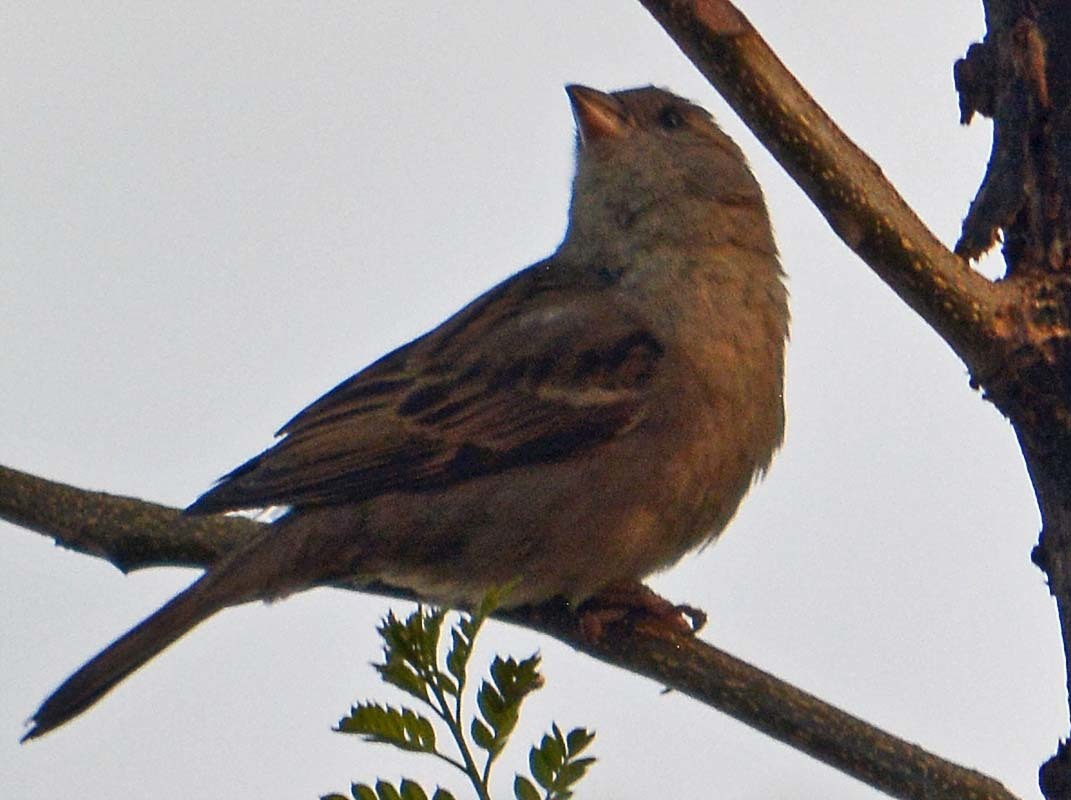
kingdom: Animalia
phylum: Chordata
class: Aves
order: Passeriformes
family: Passeridae
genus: Passer
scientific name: Passer domesticus
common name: House sparrow
